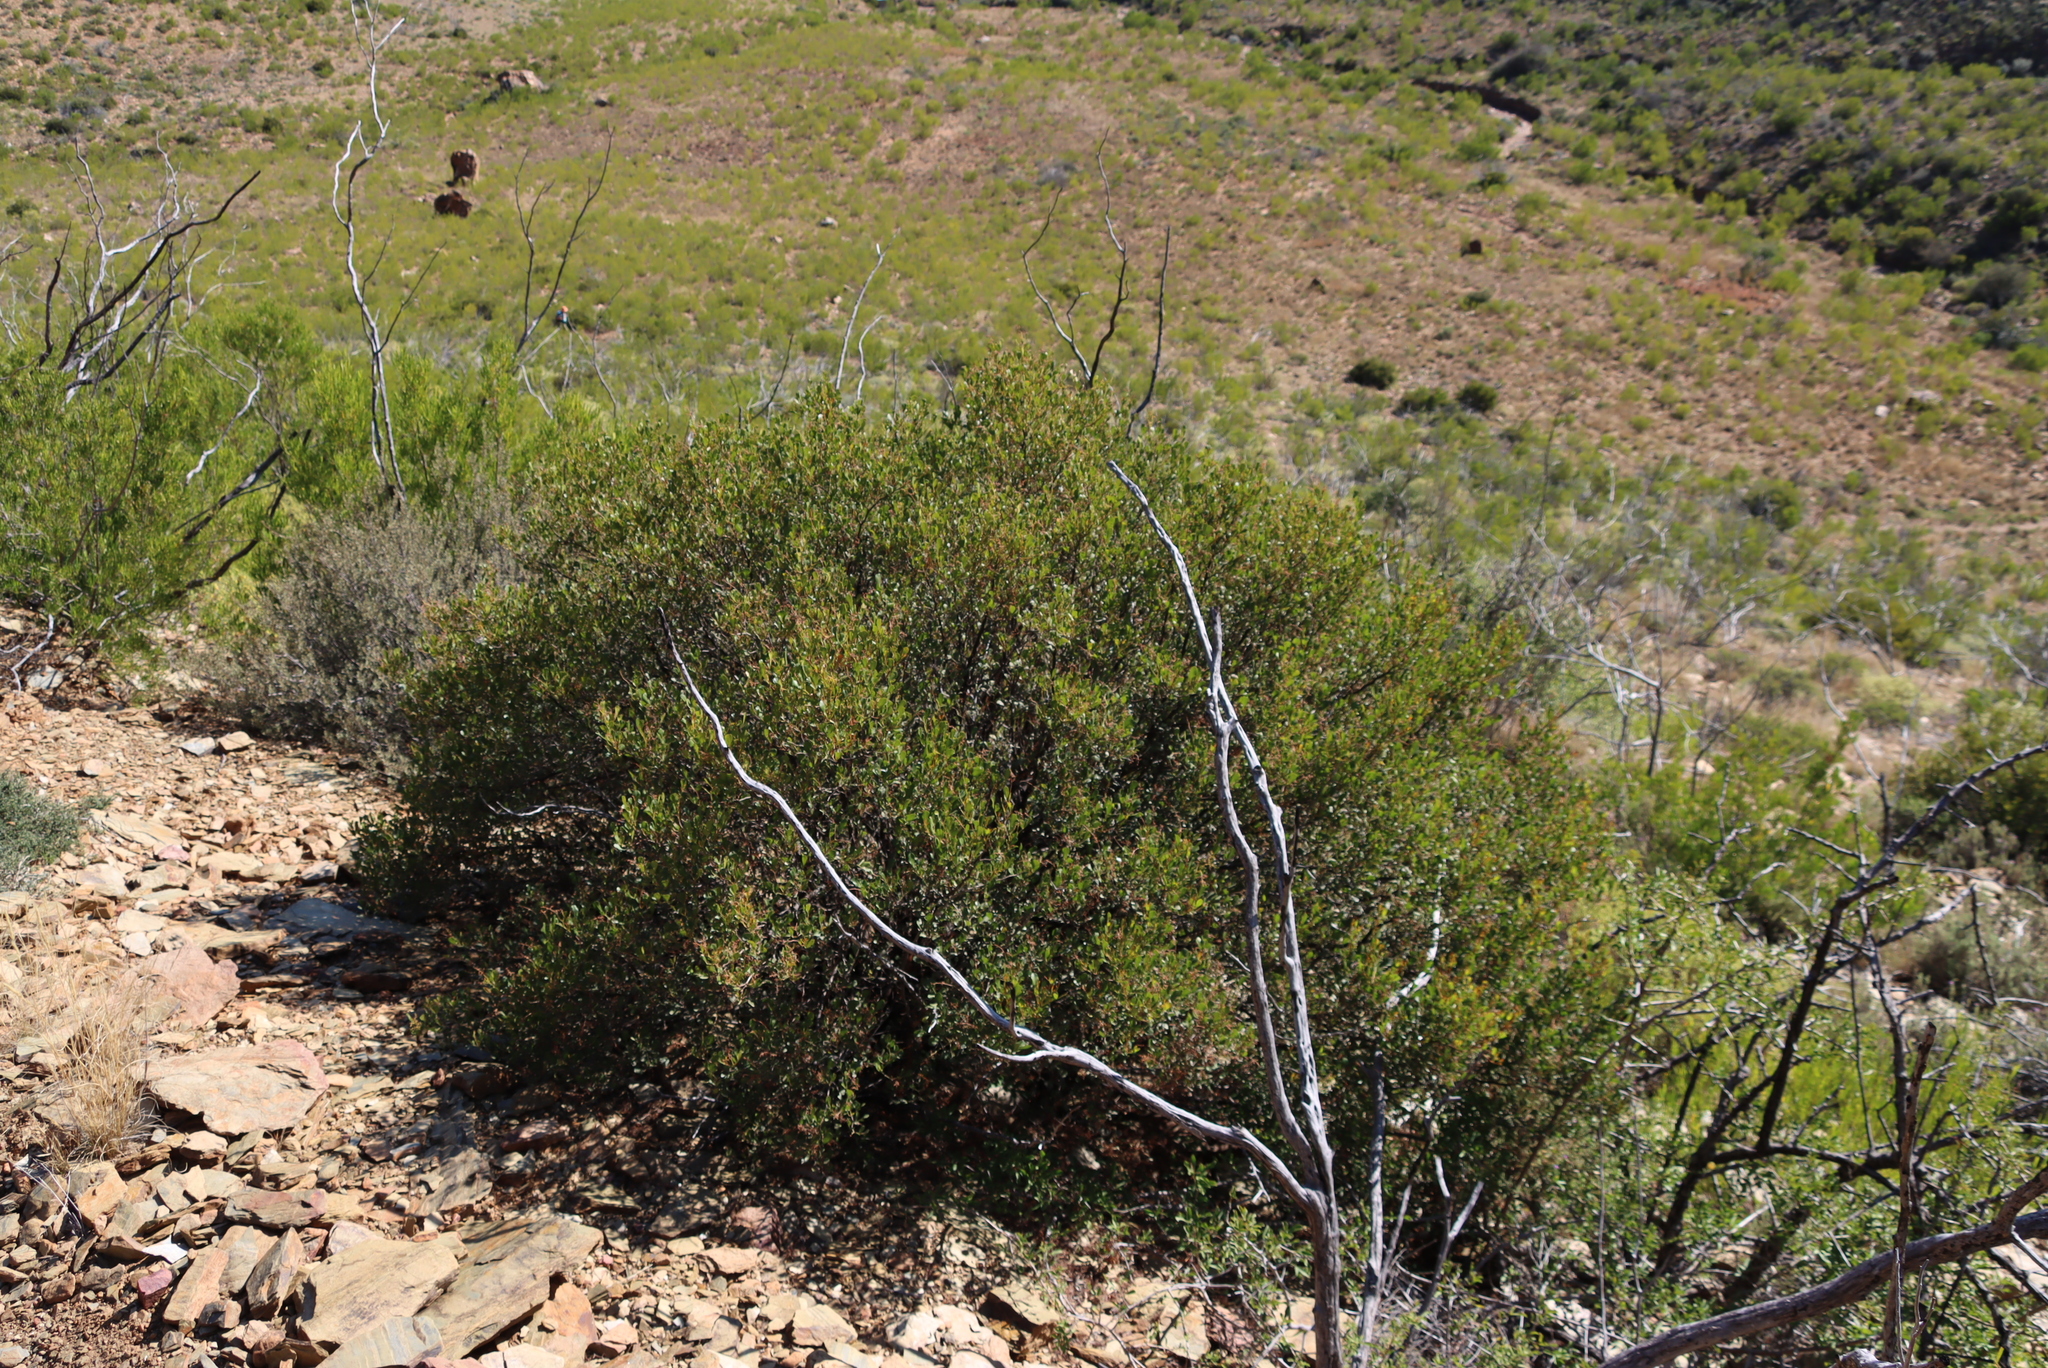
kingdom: Plantae
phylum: Tracheophyta
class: Magnoliopsida
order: Sapindales
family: Anacardiaceae
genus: Searsia
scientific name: Searsia pallens
